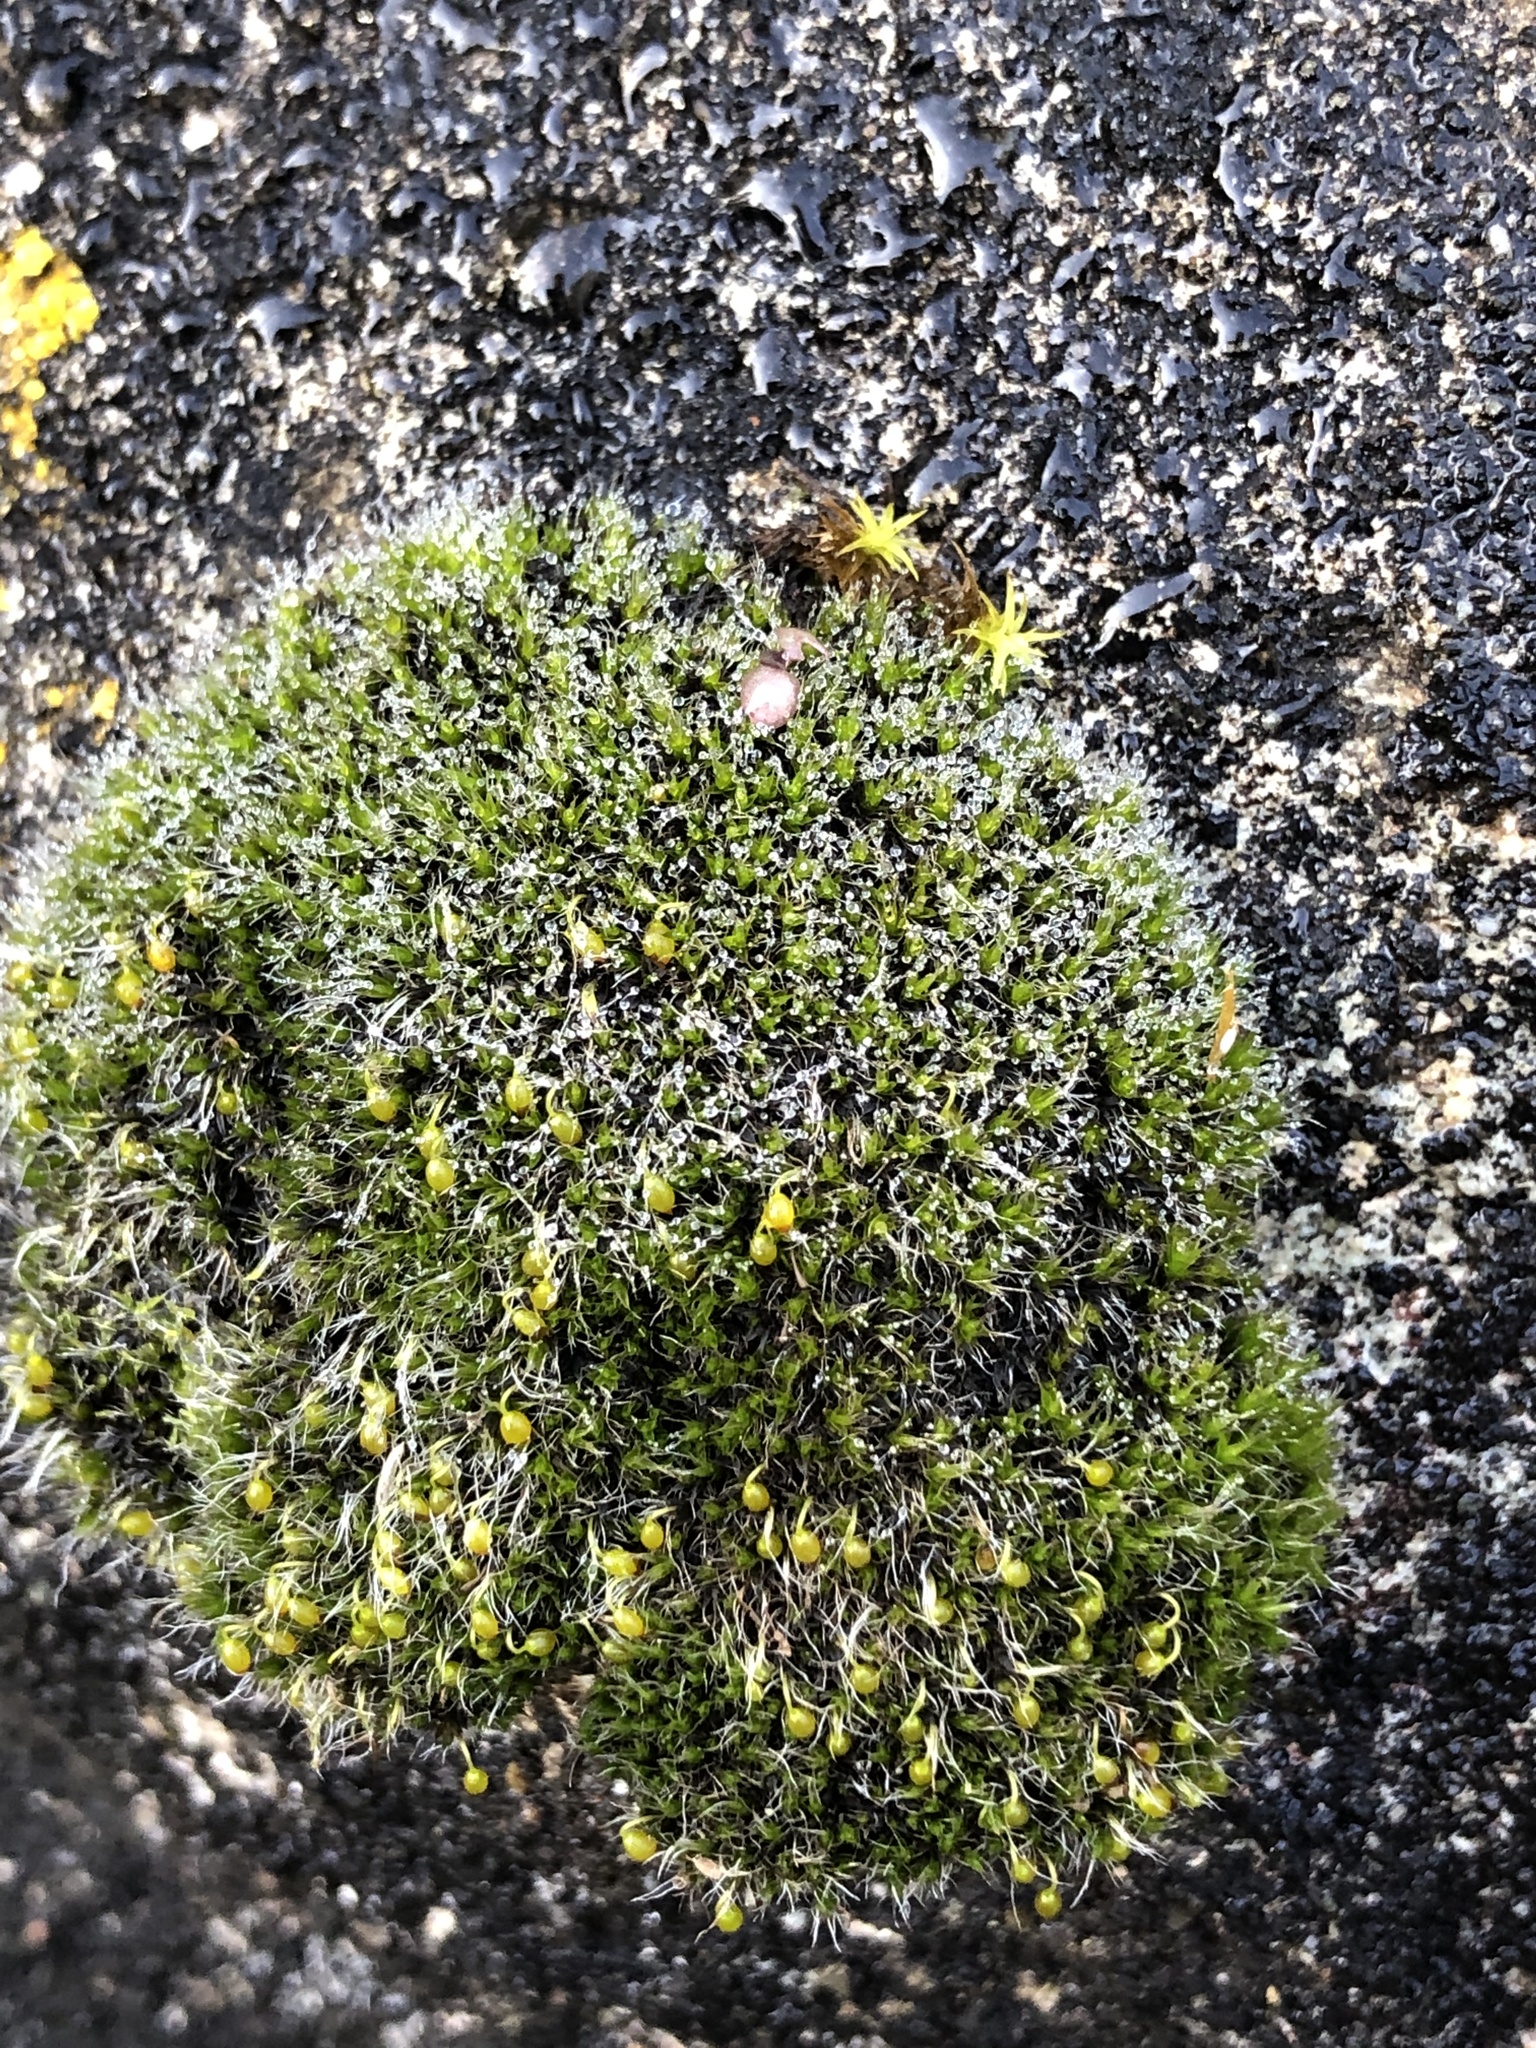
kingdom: Plantae
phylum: Bryophyta
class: Bryopsida
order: Grimmiales
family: Grimmiaceae
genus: Grimmia
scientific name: Grimmia pulvinata
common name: Grey-cushioned grimmia
